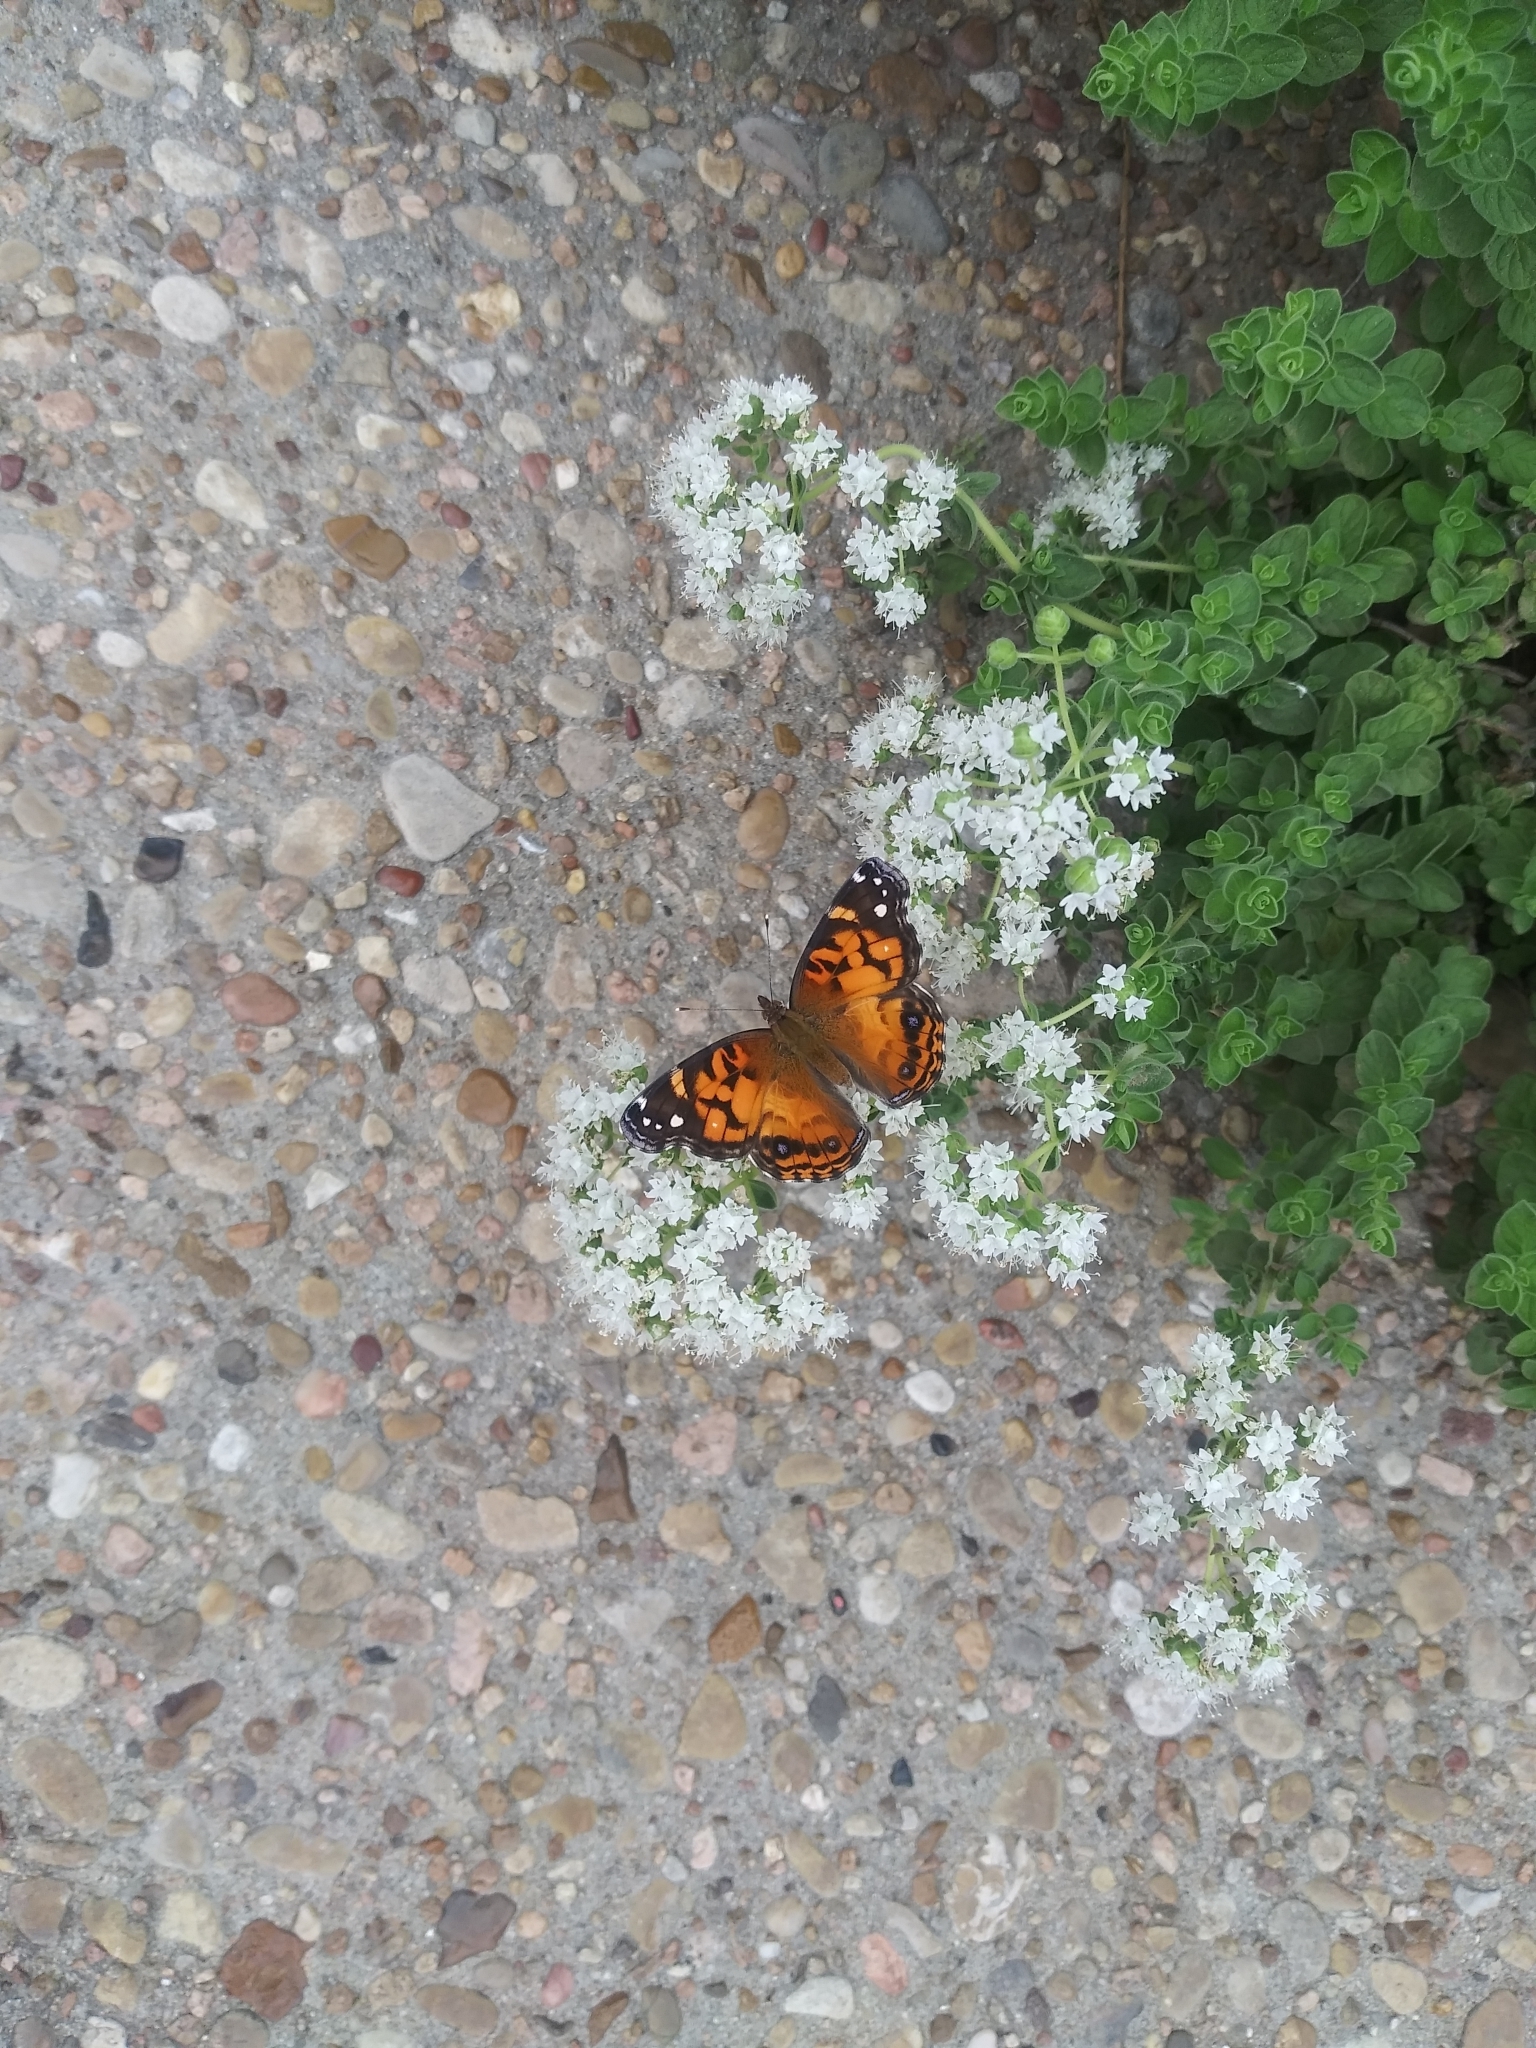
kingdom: Animalia
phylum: Arthropoda
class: Insecta
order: Lepidoptera
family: Nymphalidae
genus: Vanessa
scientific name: Vanessa virginiensis
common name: American lady
